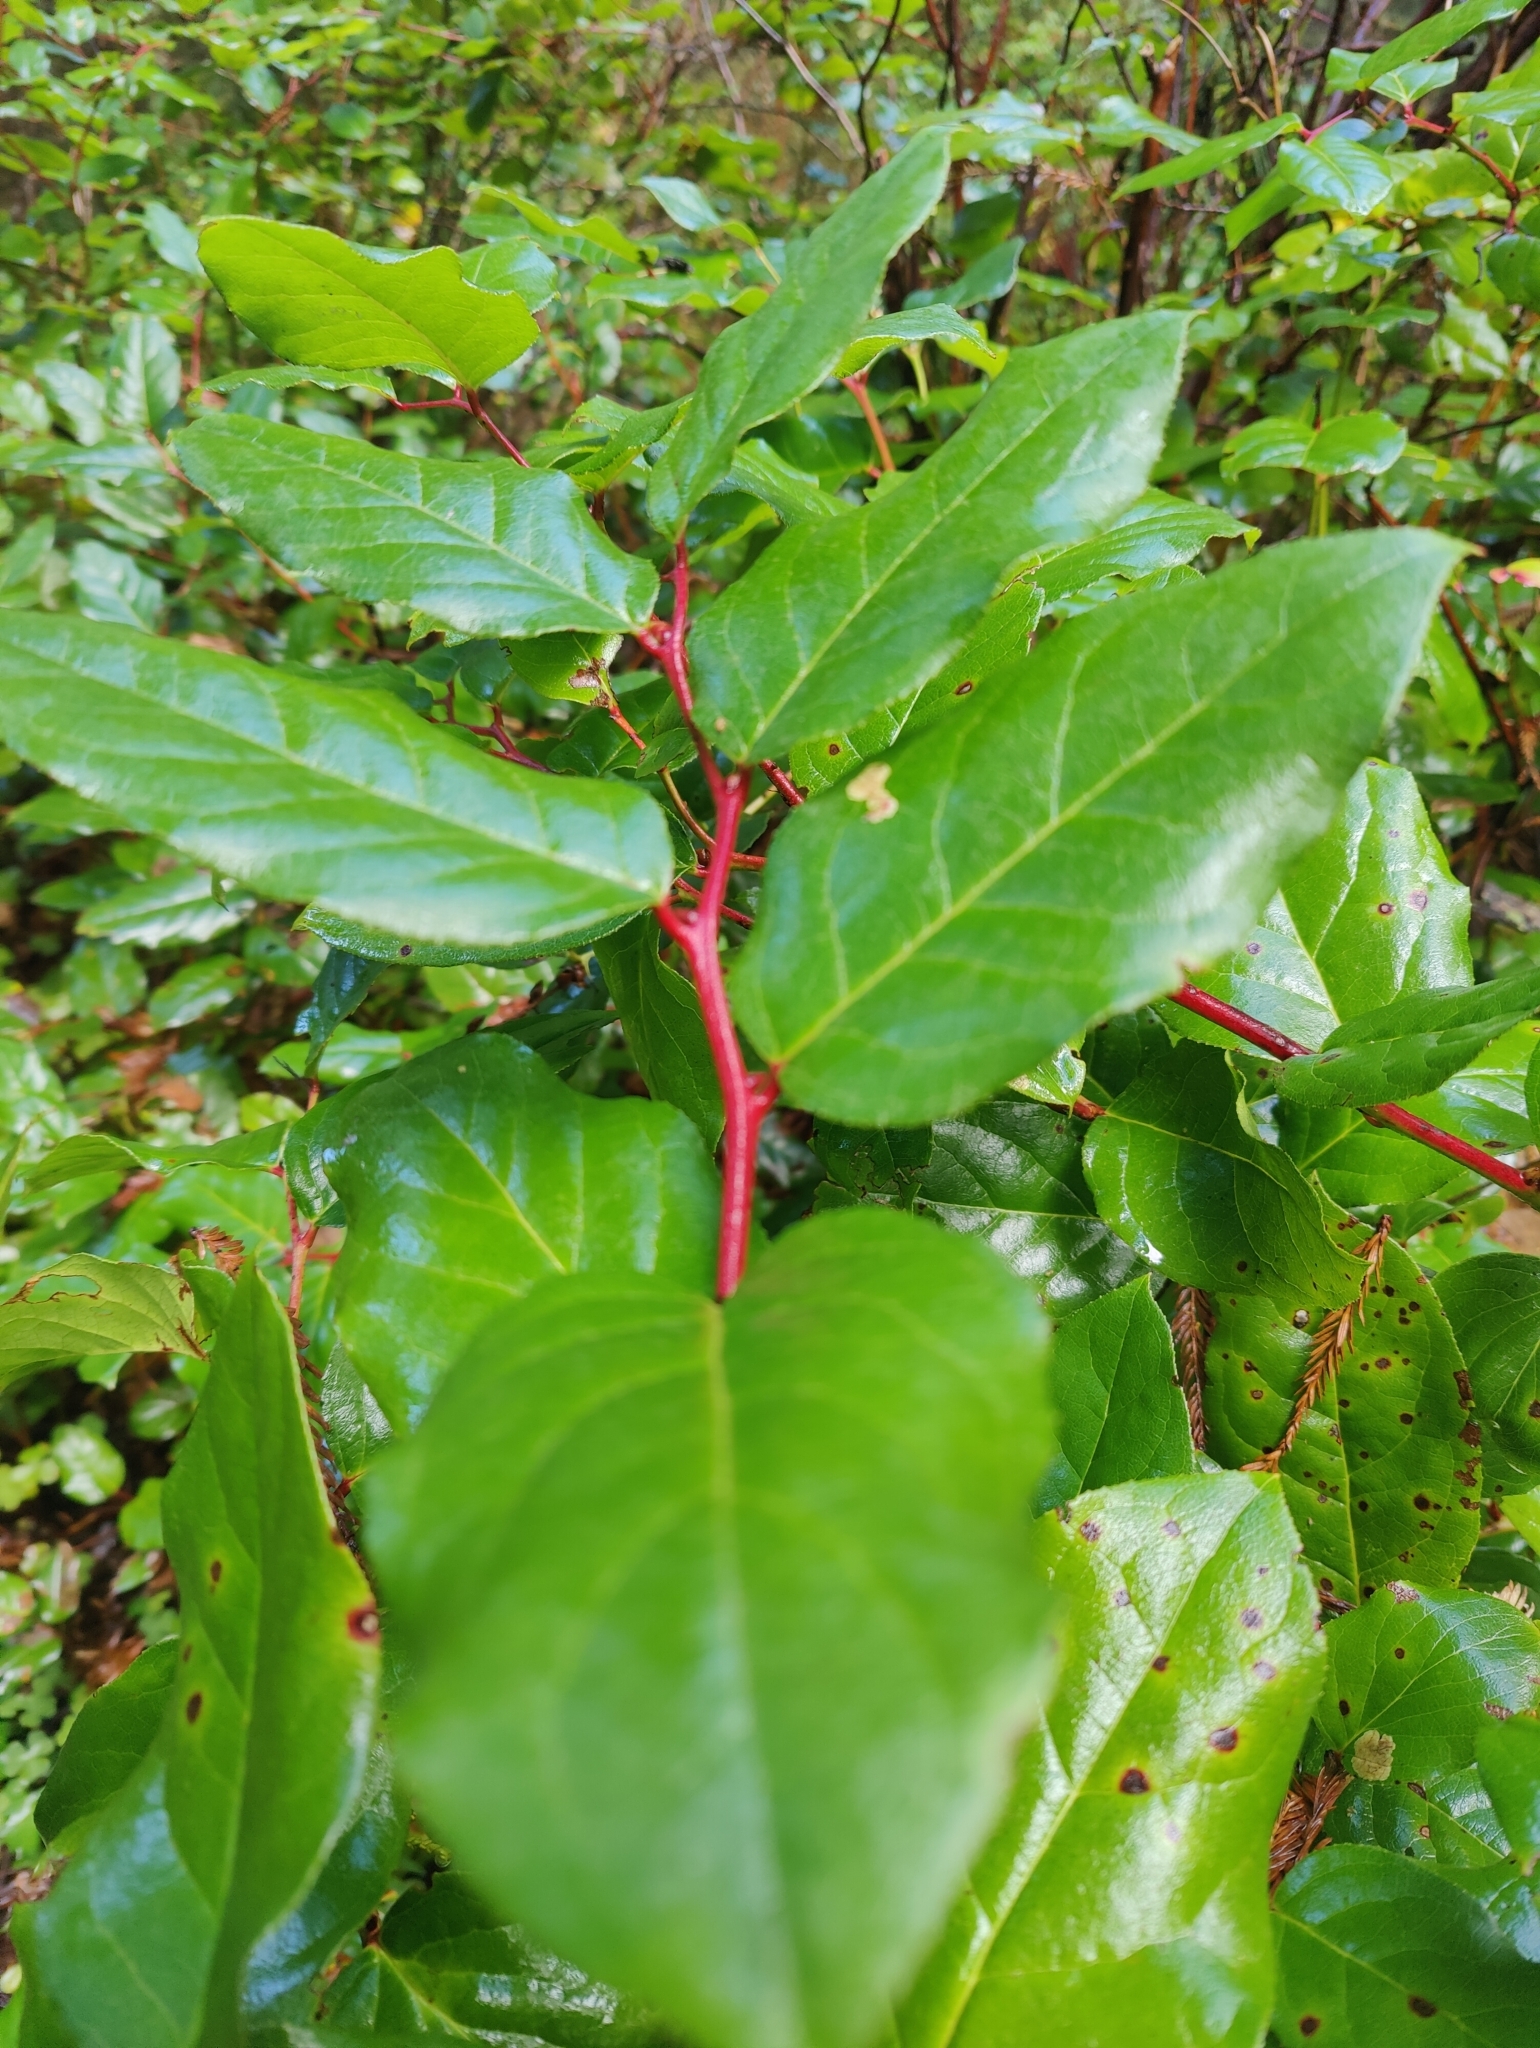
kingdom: Plantae
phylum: Tracheophyta
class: Magnoliopsida
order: Ericales
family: Ericaceae
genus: Gaultheria
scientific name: Gaultheria shallon
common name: Shallon
